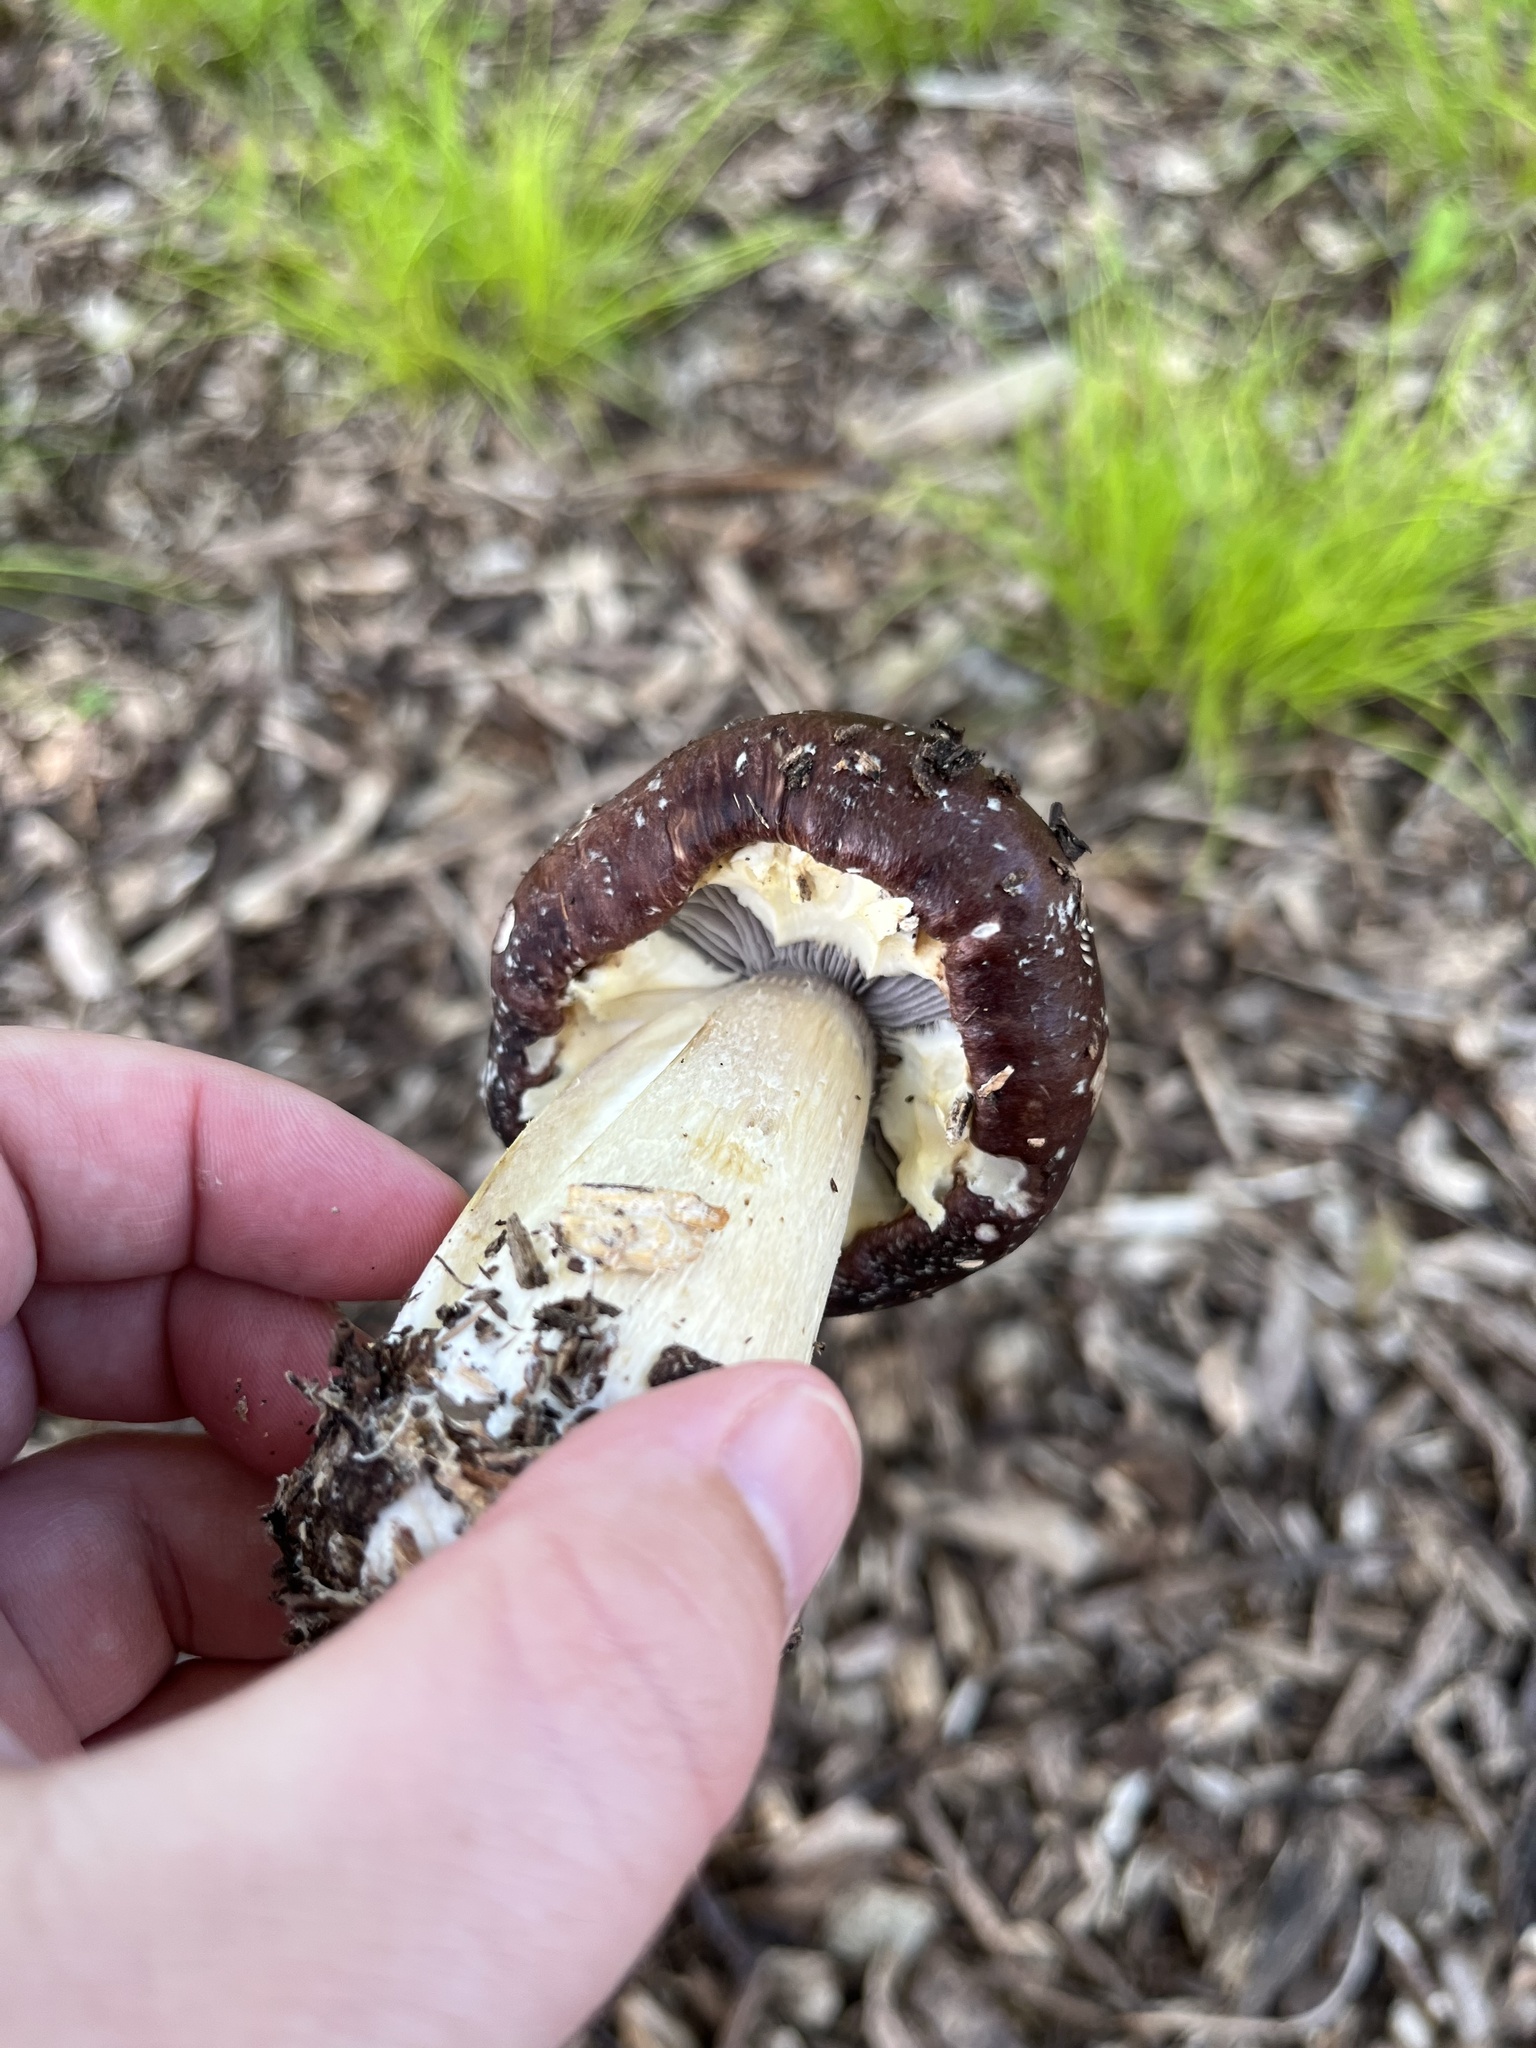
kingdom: Fungi
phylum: Basidiomycota
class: Agaricomycetes
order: Agaricales
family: Strophariaceae
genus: Stropharia
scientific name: Stropharia rugosoannulata
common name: Wine roundhead
